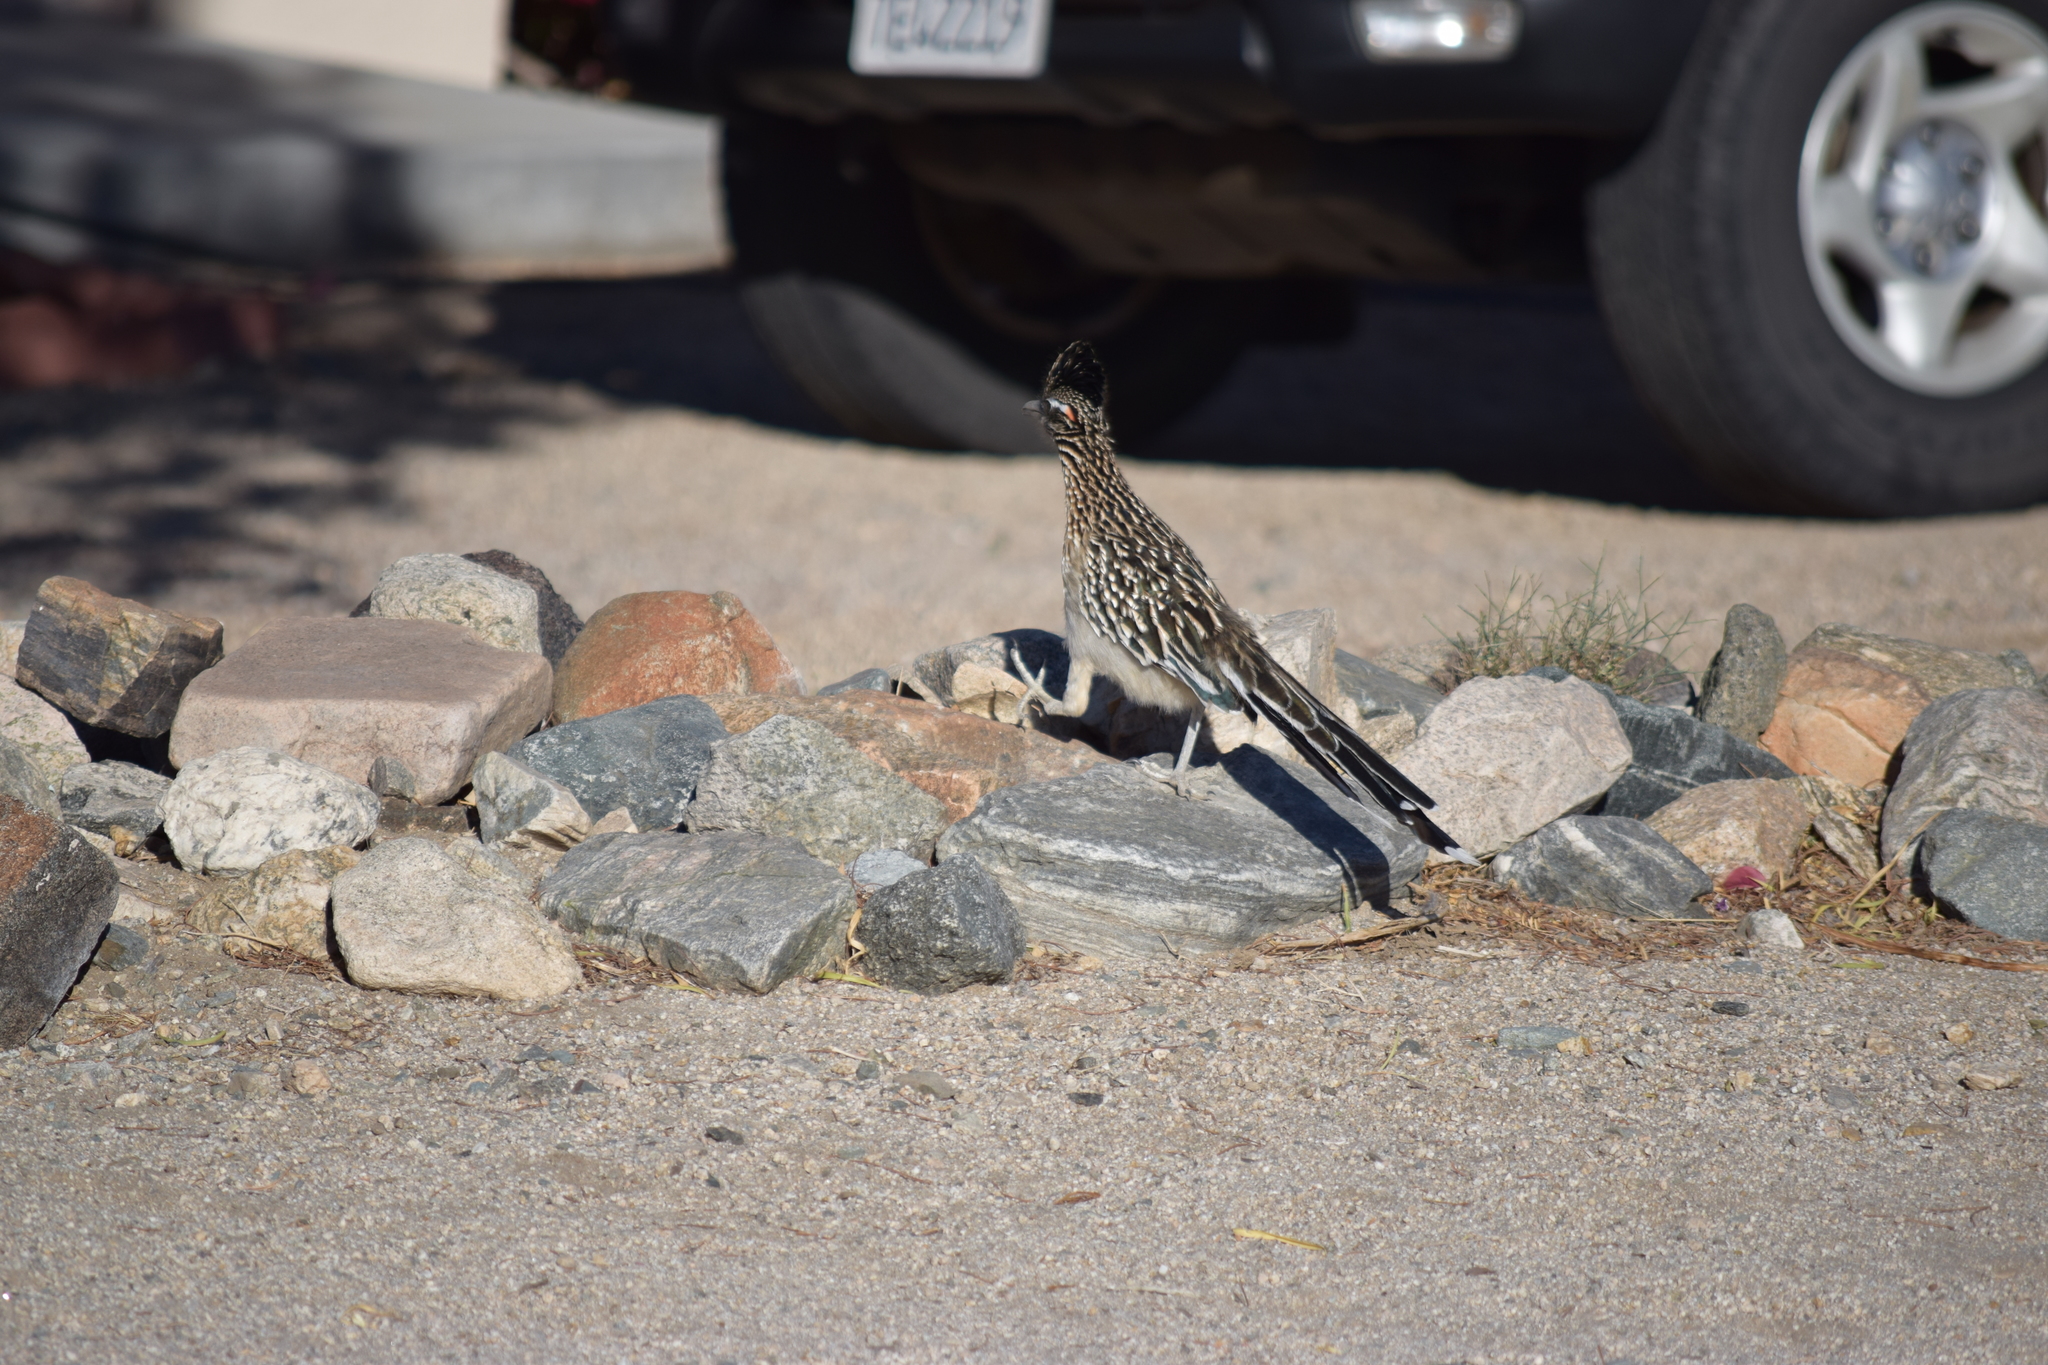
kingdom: Animalia
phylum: Chordata
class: Aves
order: Cuculiformes
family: Cuculidae
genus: Geococcyx
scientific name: Geococcyx californianus
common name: Greater roadrunner
